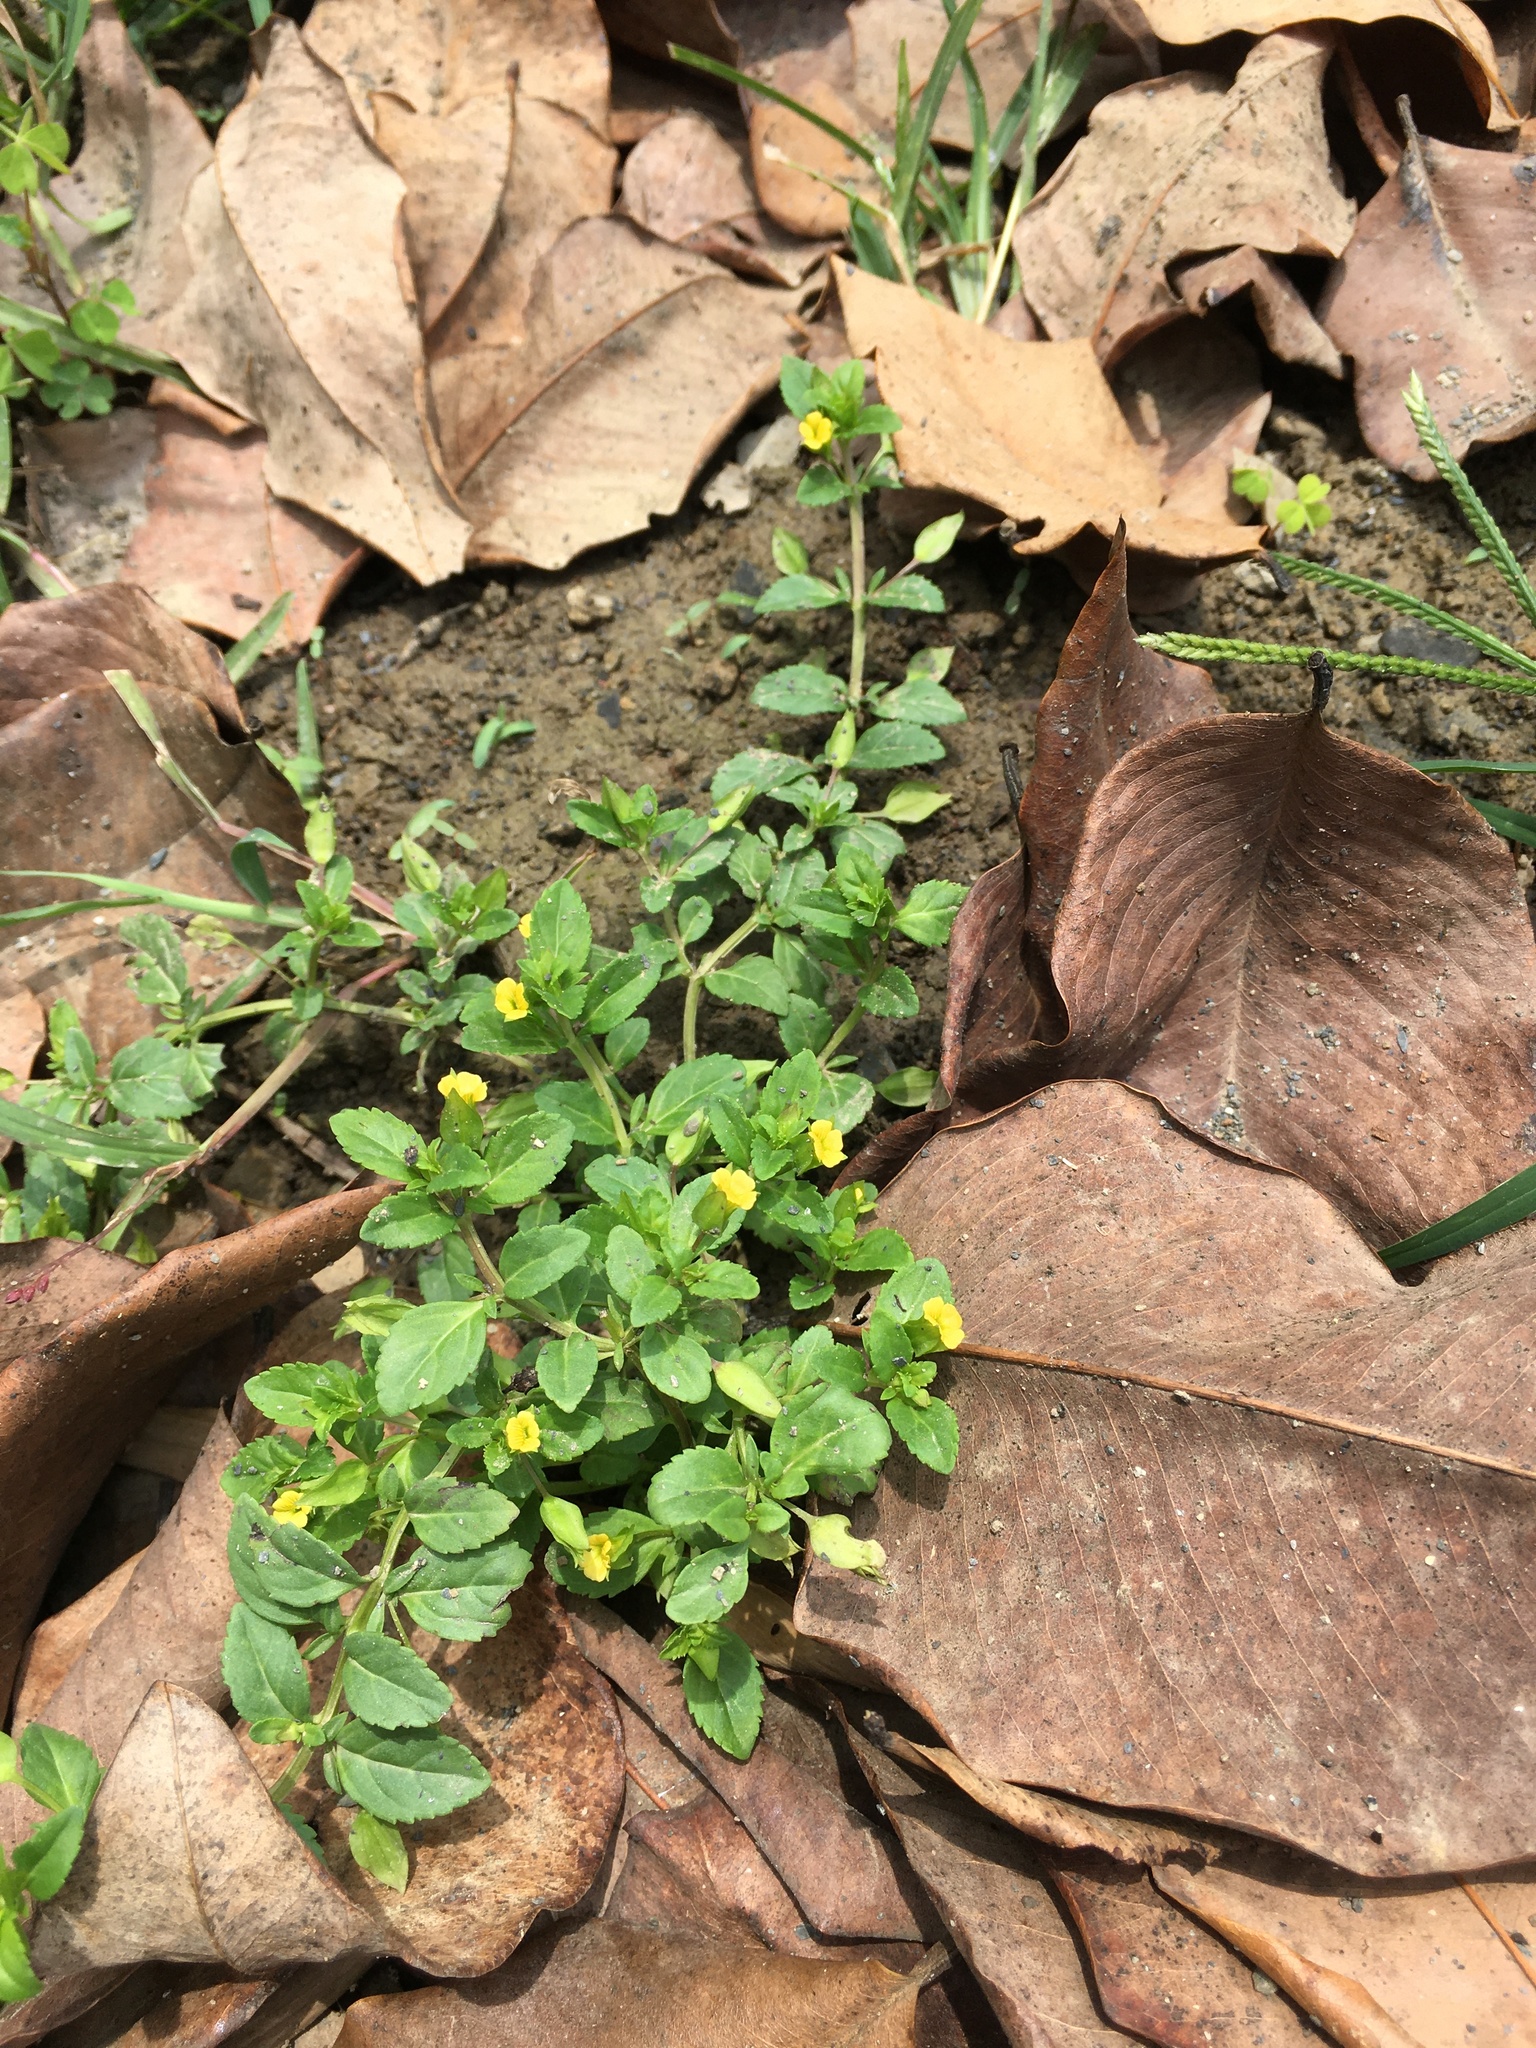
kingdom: Plantae
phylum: Tracheophyta
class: Magnoliopsida
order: Lamiales
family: Plantaginaceae
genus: Mecardonia
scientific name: Mecardonia procumbens
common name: Baby jump-up
